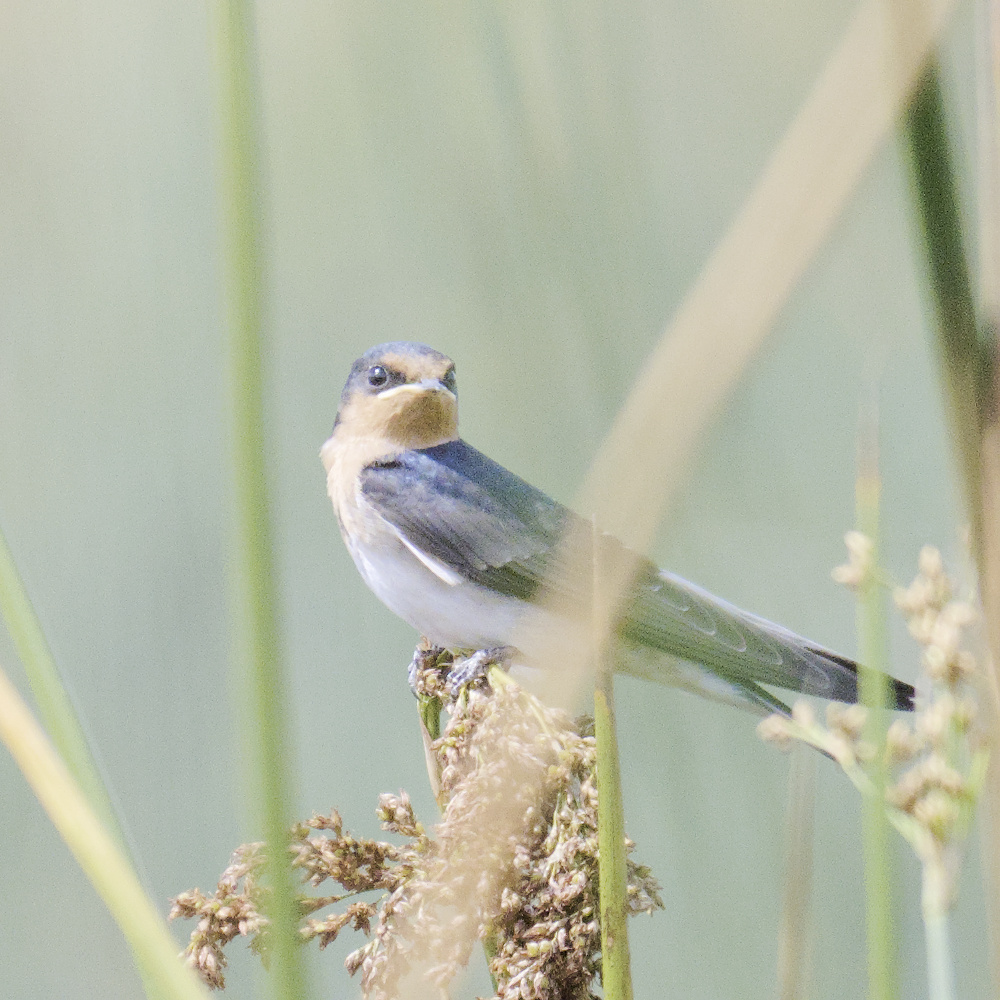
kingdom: Animalia
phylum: Chordata
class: Aves
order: Passeriformes
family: Hirundinidae
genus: Hirundo
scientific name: Hirundo neoxena
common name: Welcome swallow
